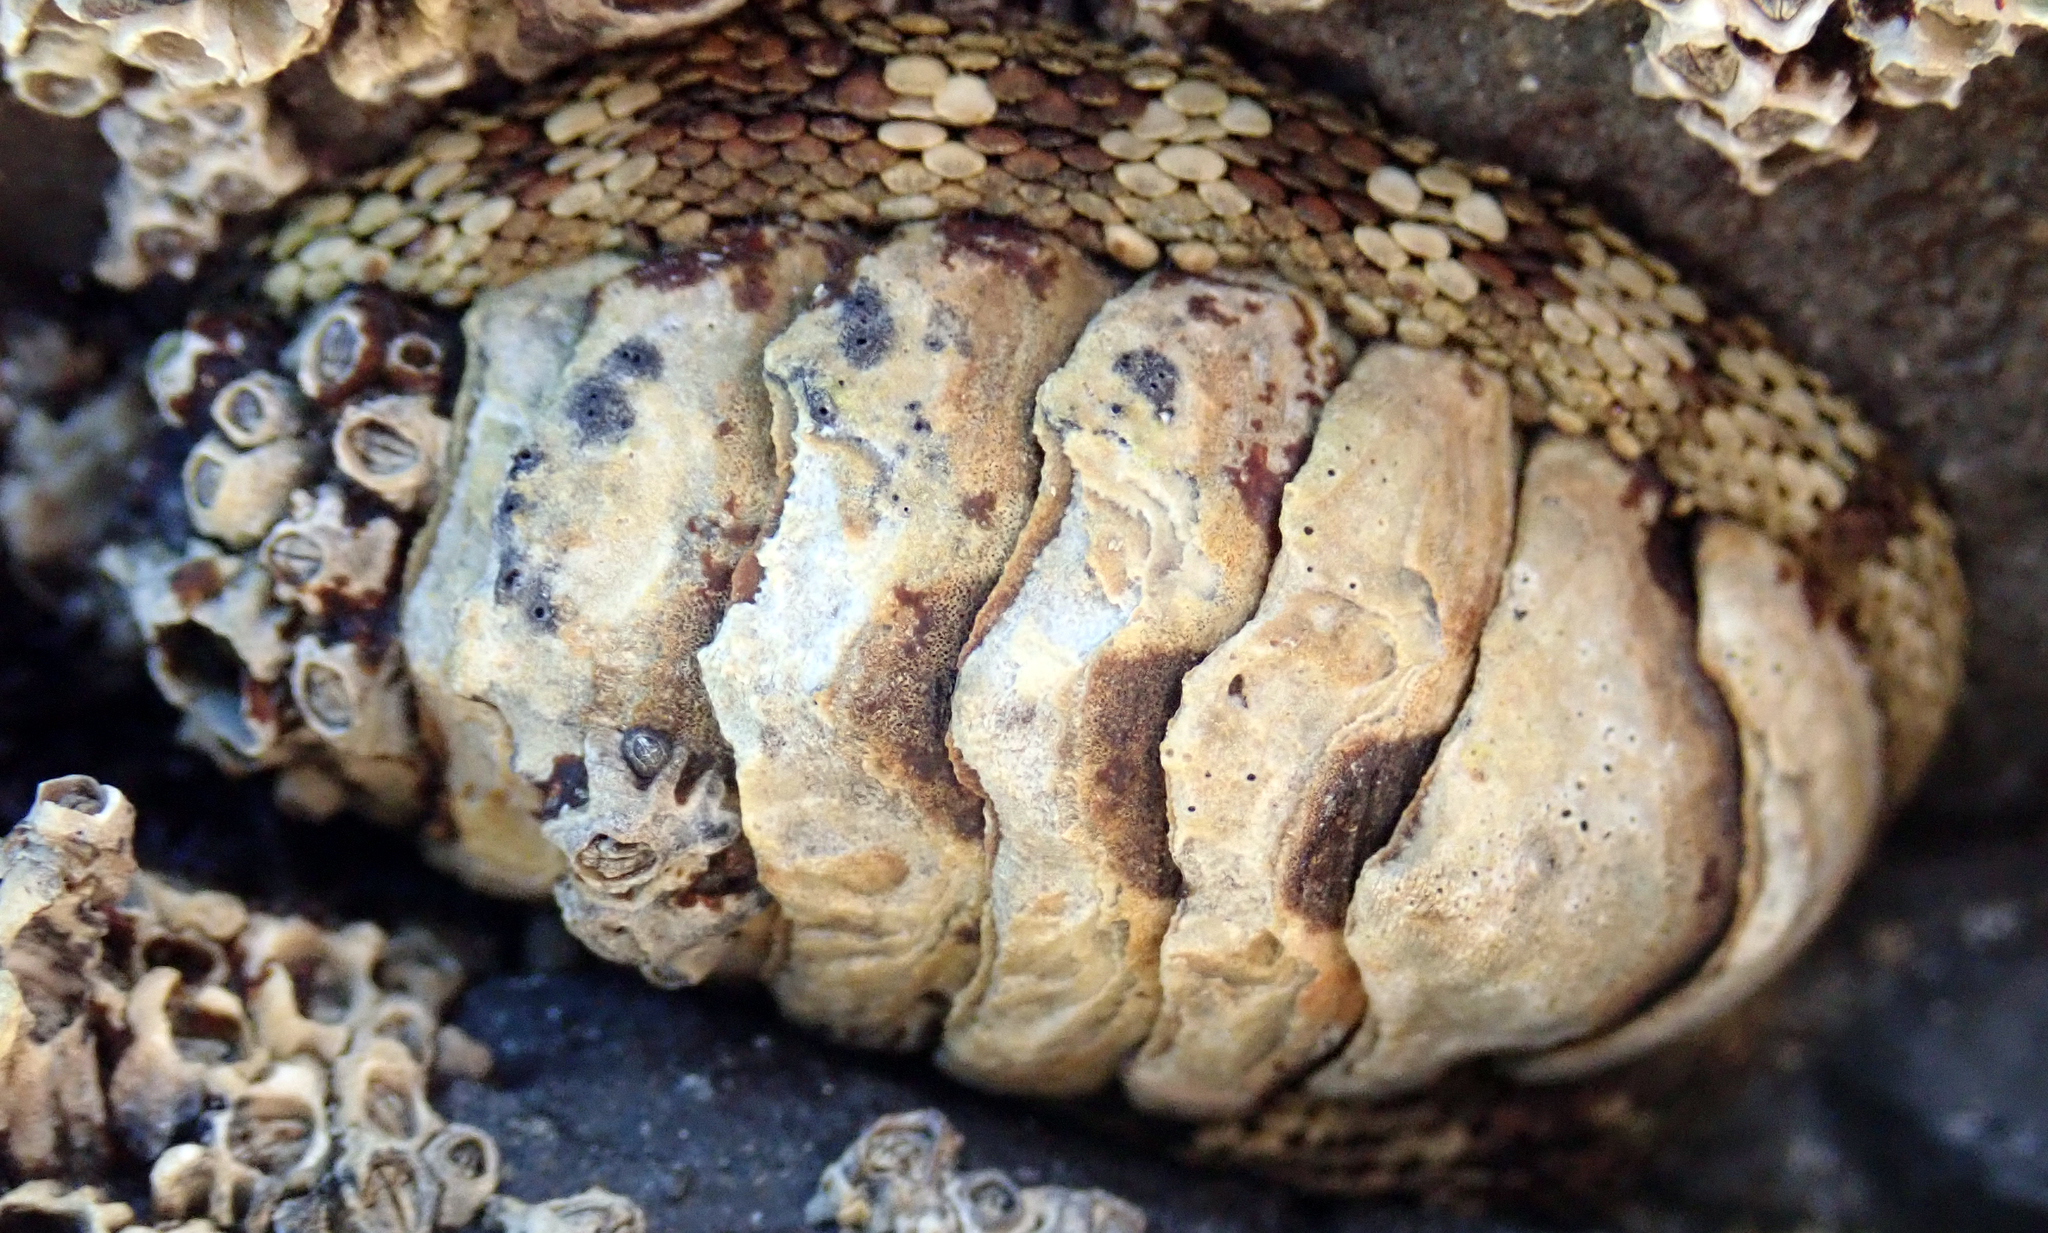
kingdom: Animalia
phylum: Mollusca
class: Polyplacophora
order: Chitonida
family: Chitonidae
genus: Sypharochiton
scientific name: Sypharochiton pelliserpentis
